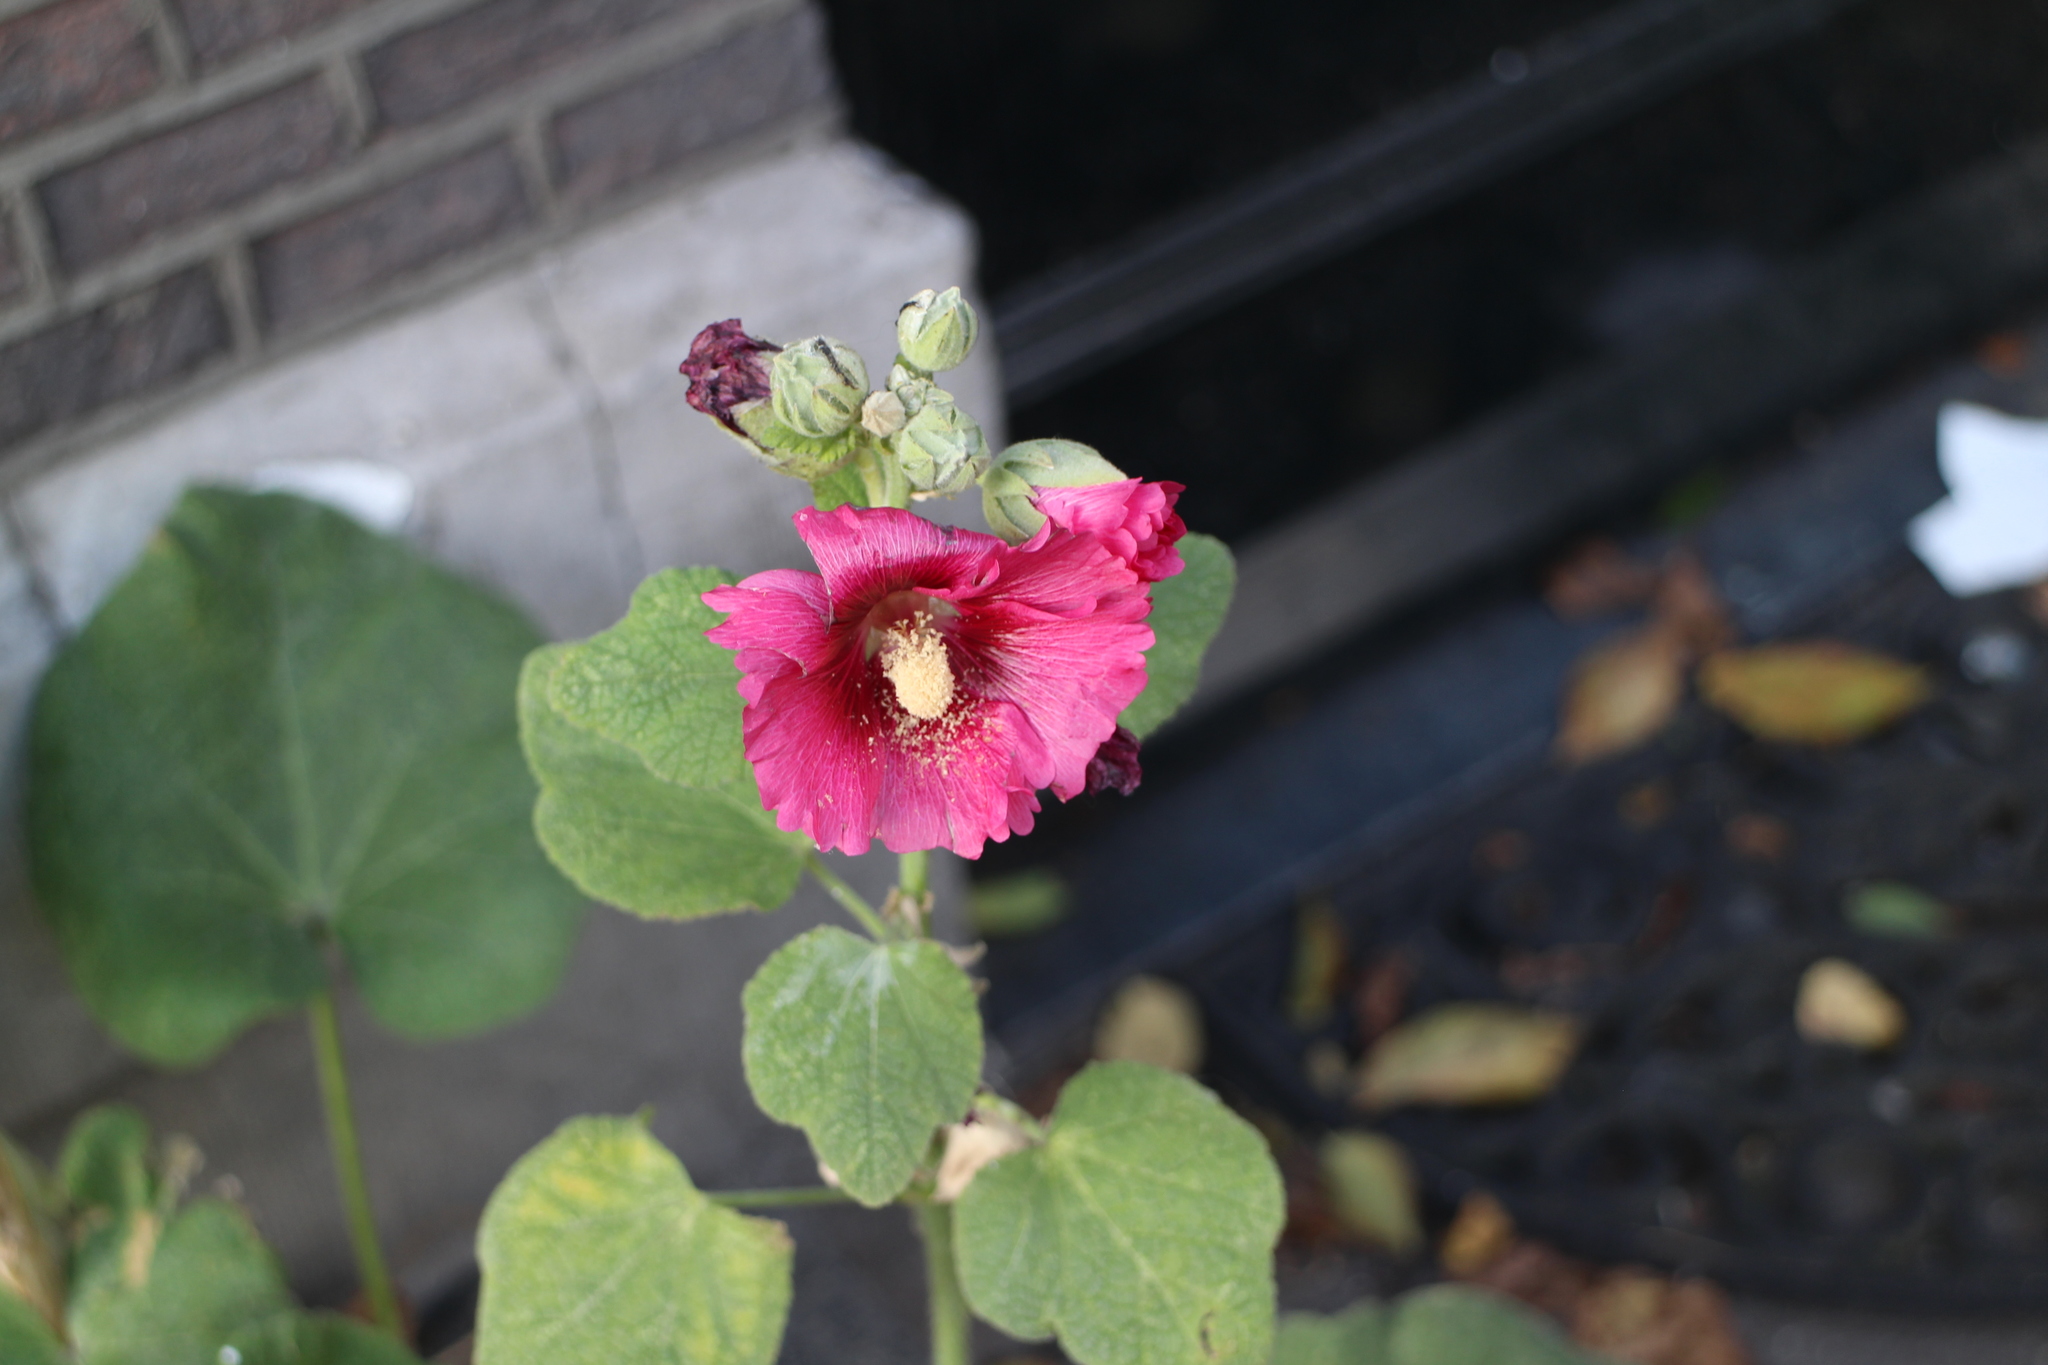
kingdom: Plantae
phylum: Tracheophyta
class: Magnoliopsida
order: Malvales
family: Malvaceae
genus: Alcea
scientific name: Alcea rosea
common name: Hollyhock
